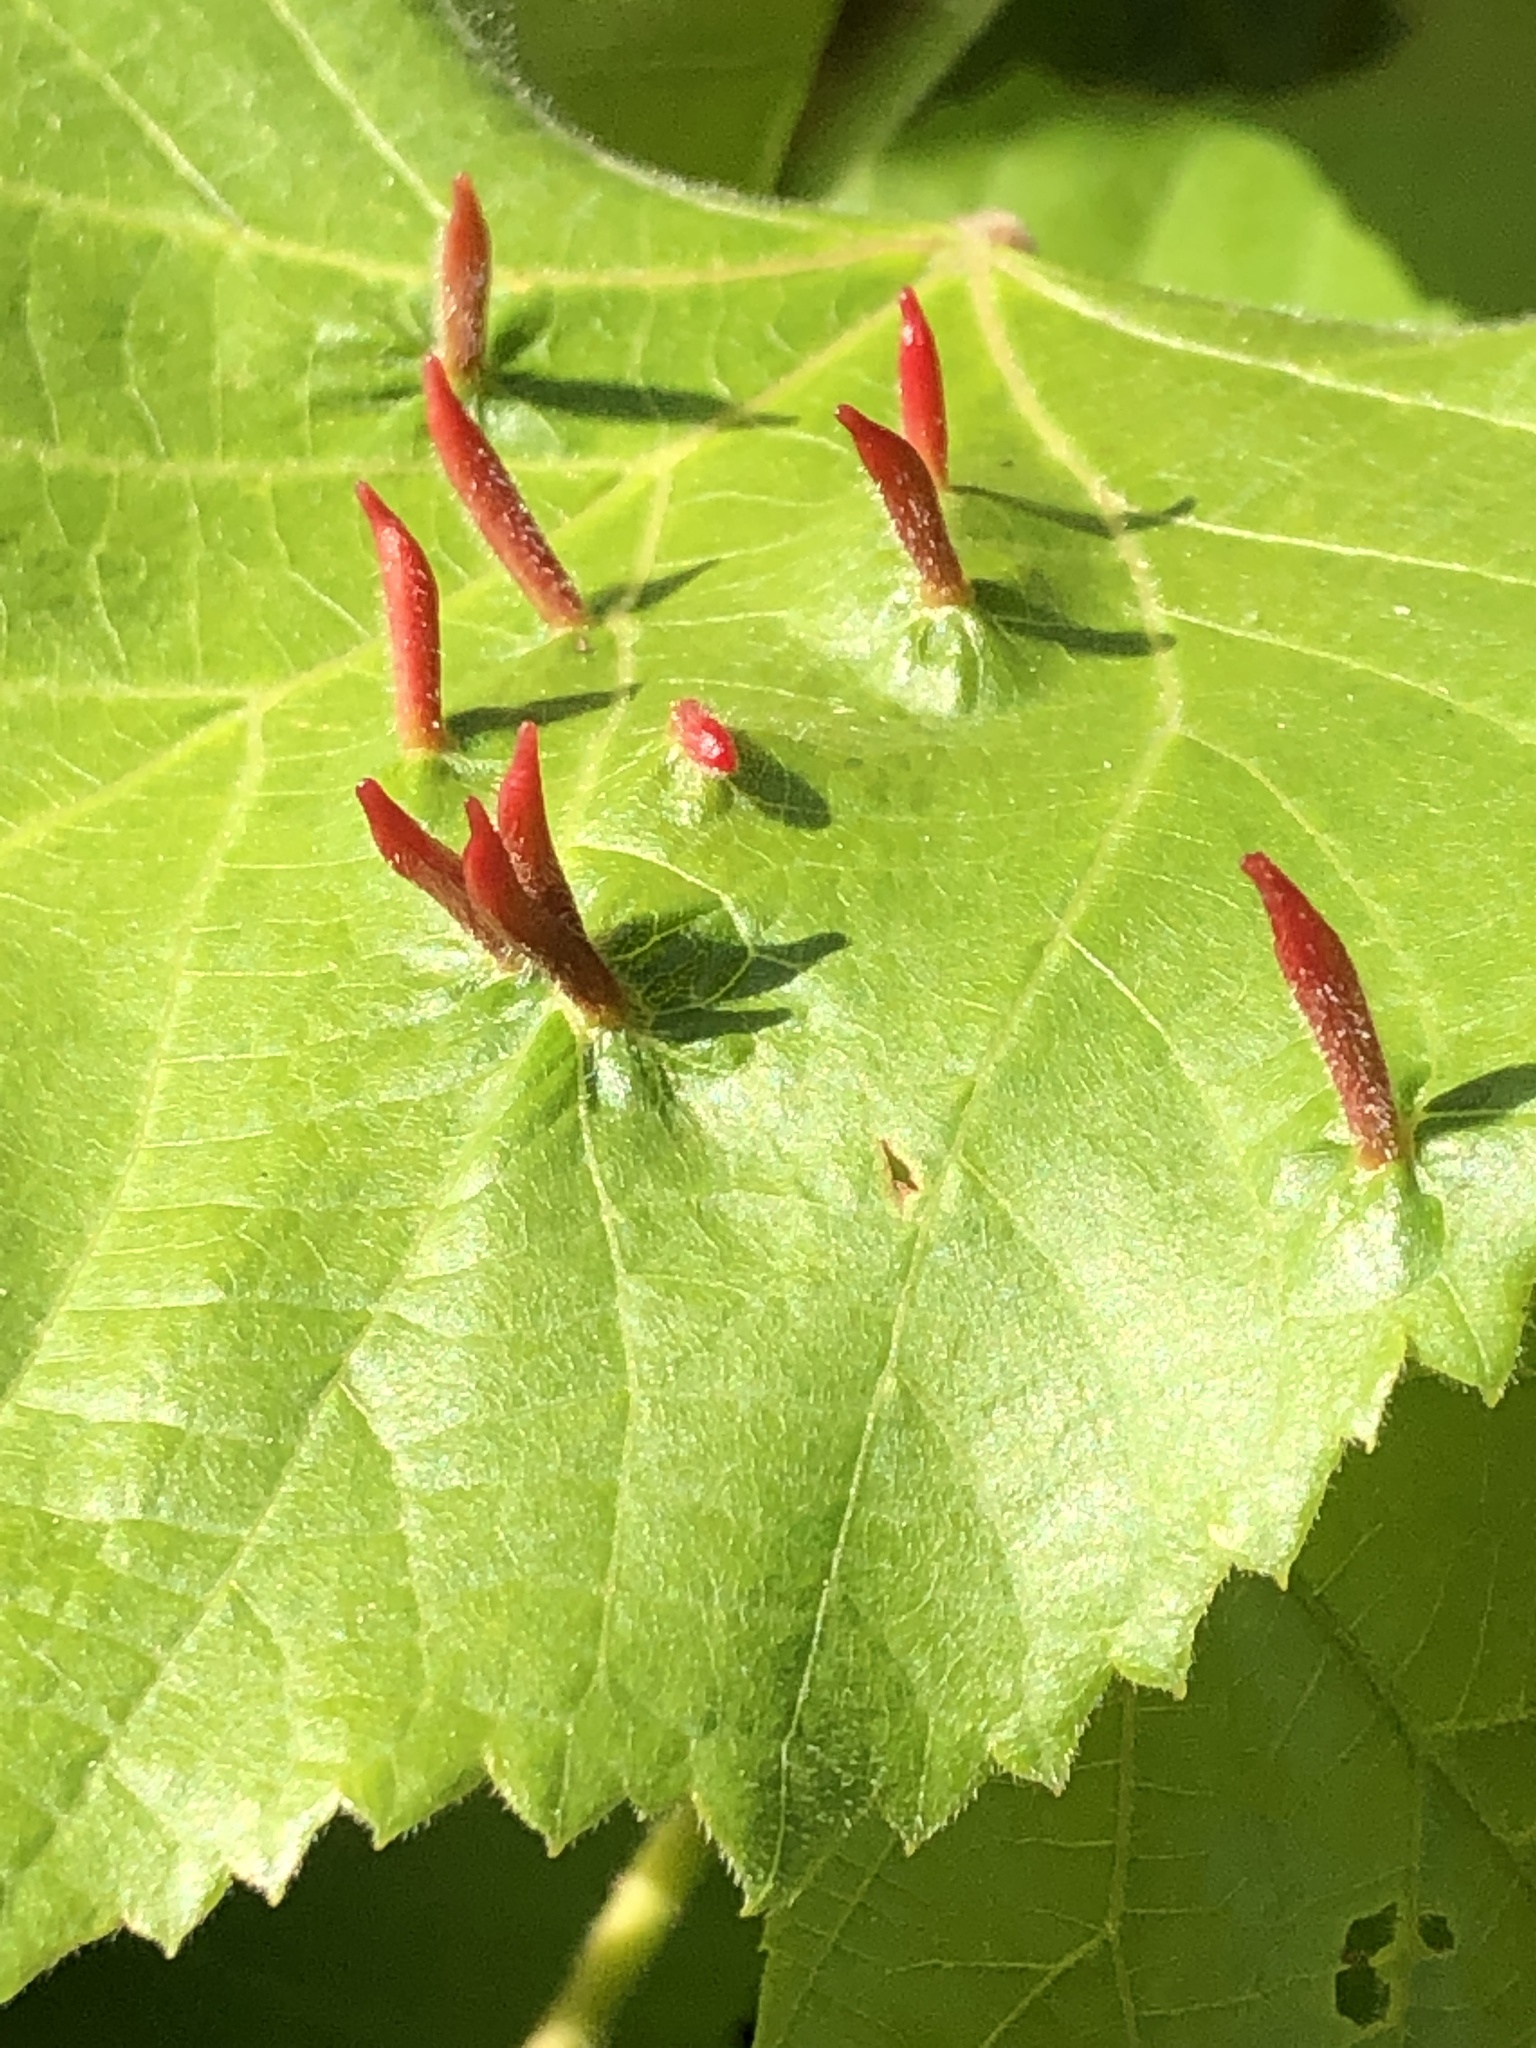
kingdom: Animalia
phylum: Arthropoda
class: Arachnida
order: Trombidiformes
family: Eriophyidae
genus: Eriophyes
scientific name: Eriophyes tiliae
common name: Red nail gall mite
